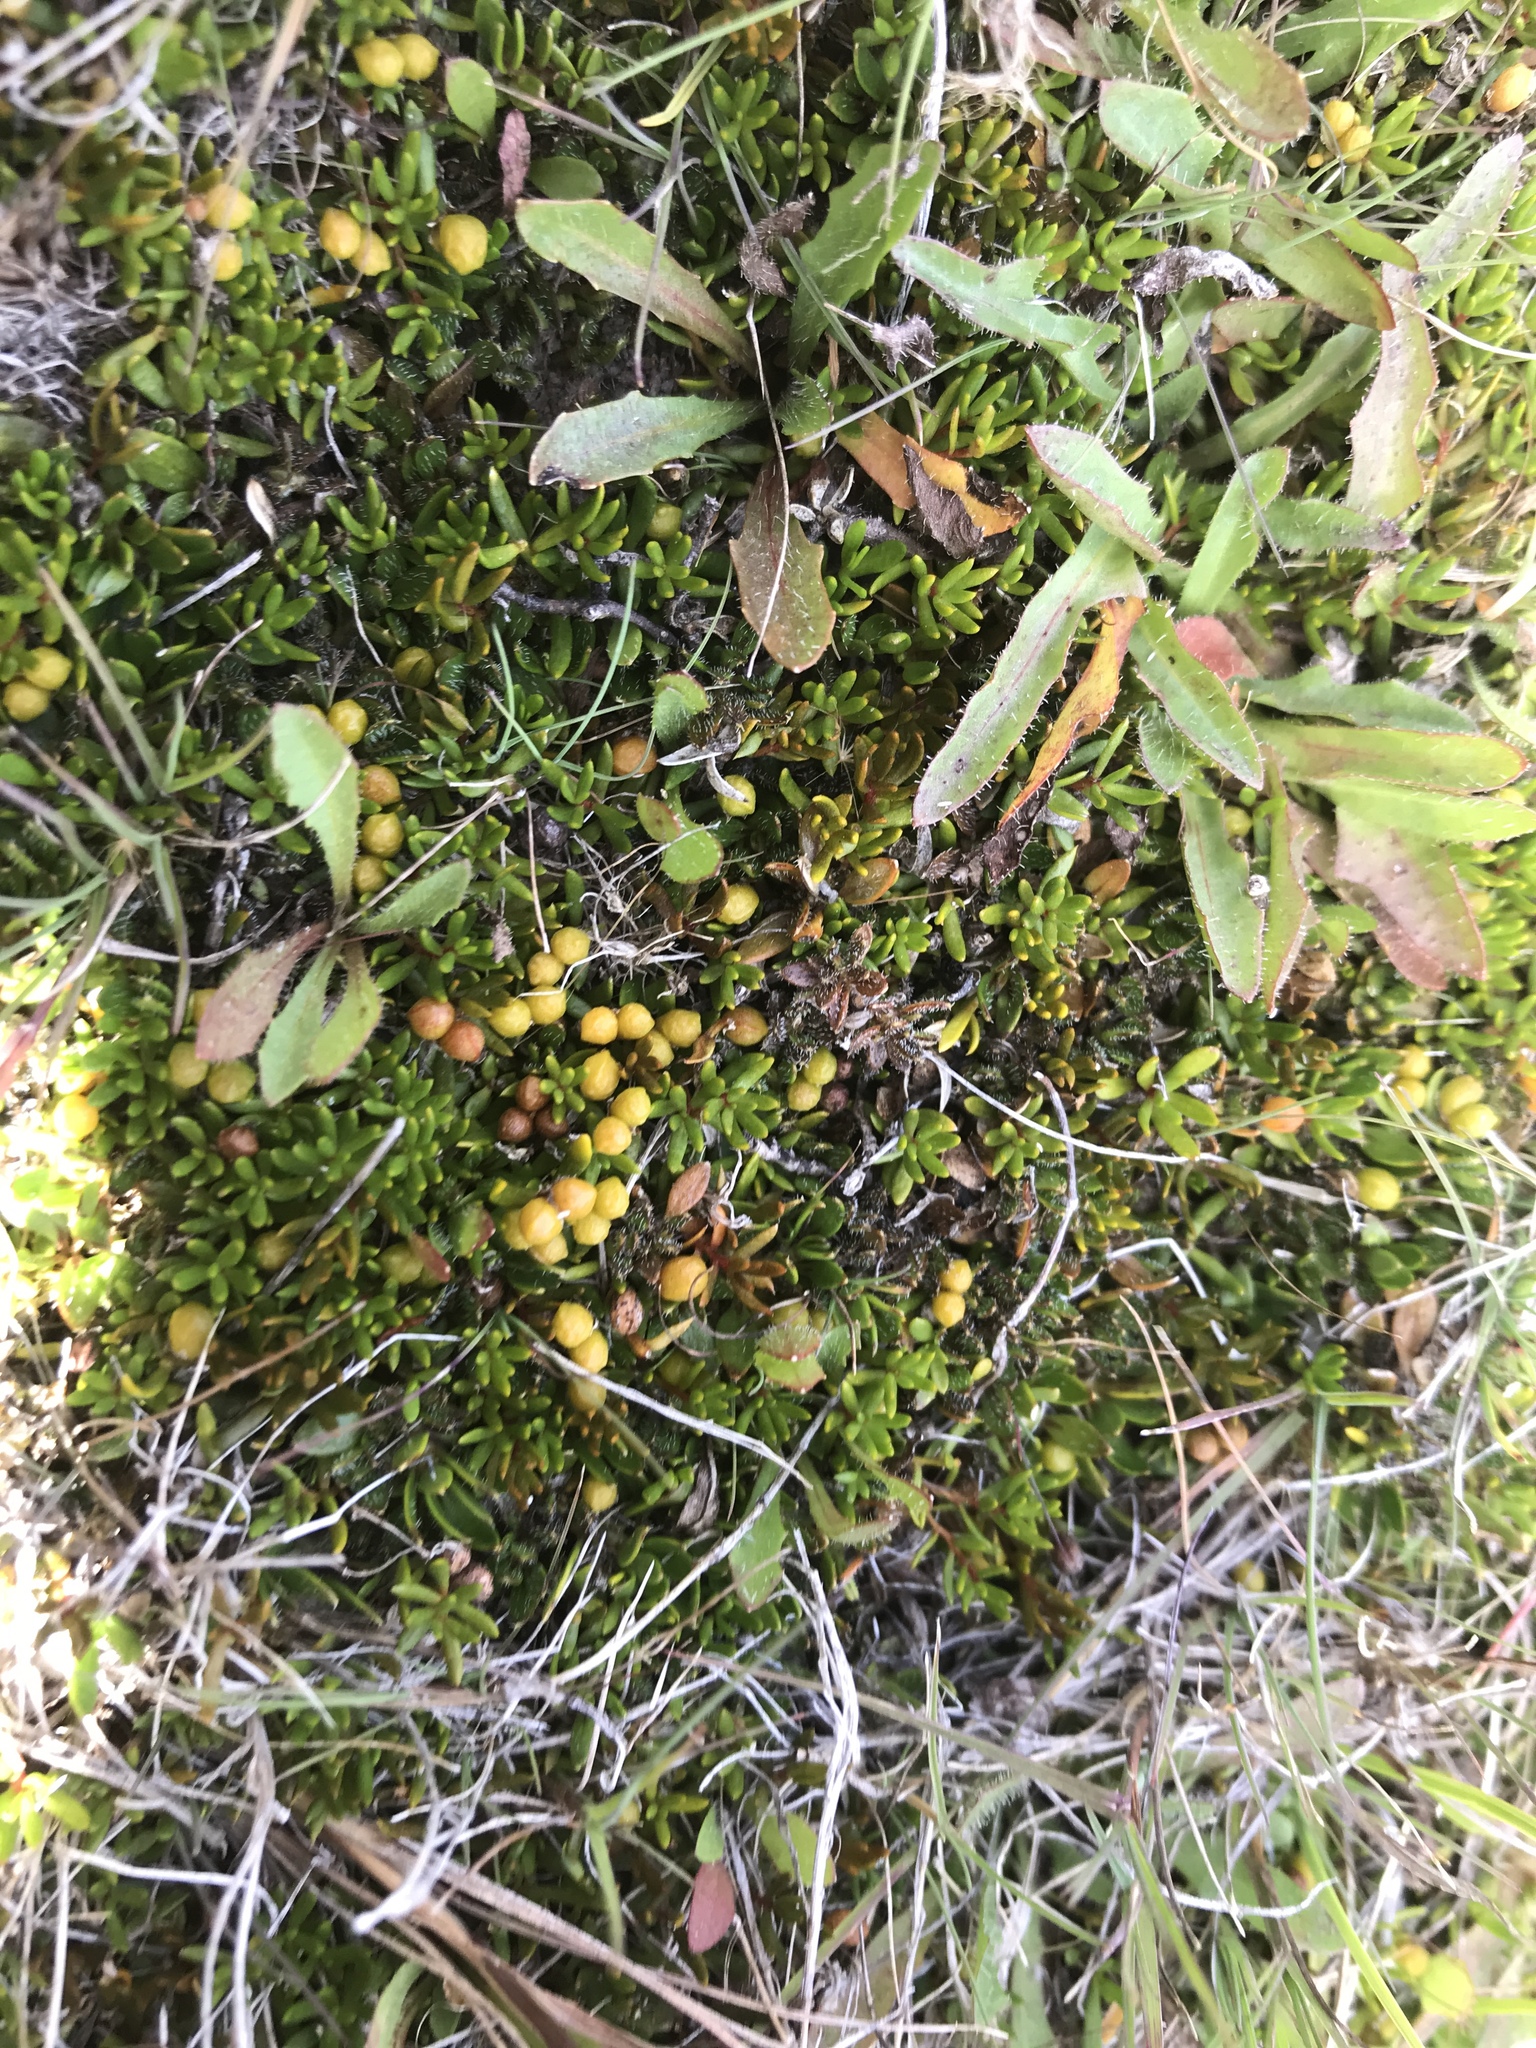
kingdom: Plantae
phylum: Tracheophyta
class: Magnoliopsida
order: Celastrales
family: Celastraceae
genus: Stackhousia
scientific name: Stackhousia minima
